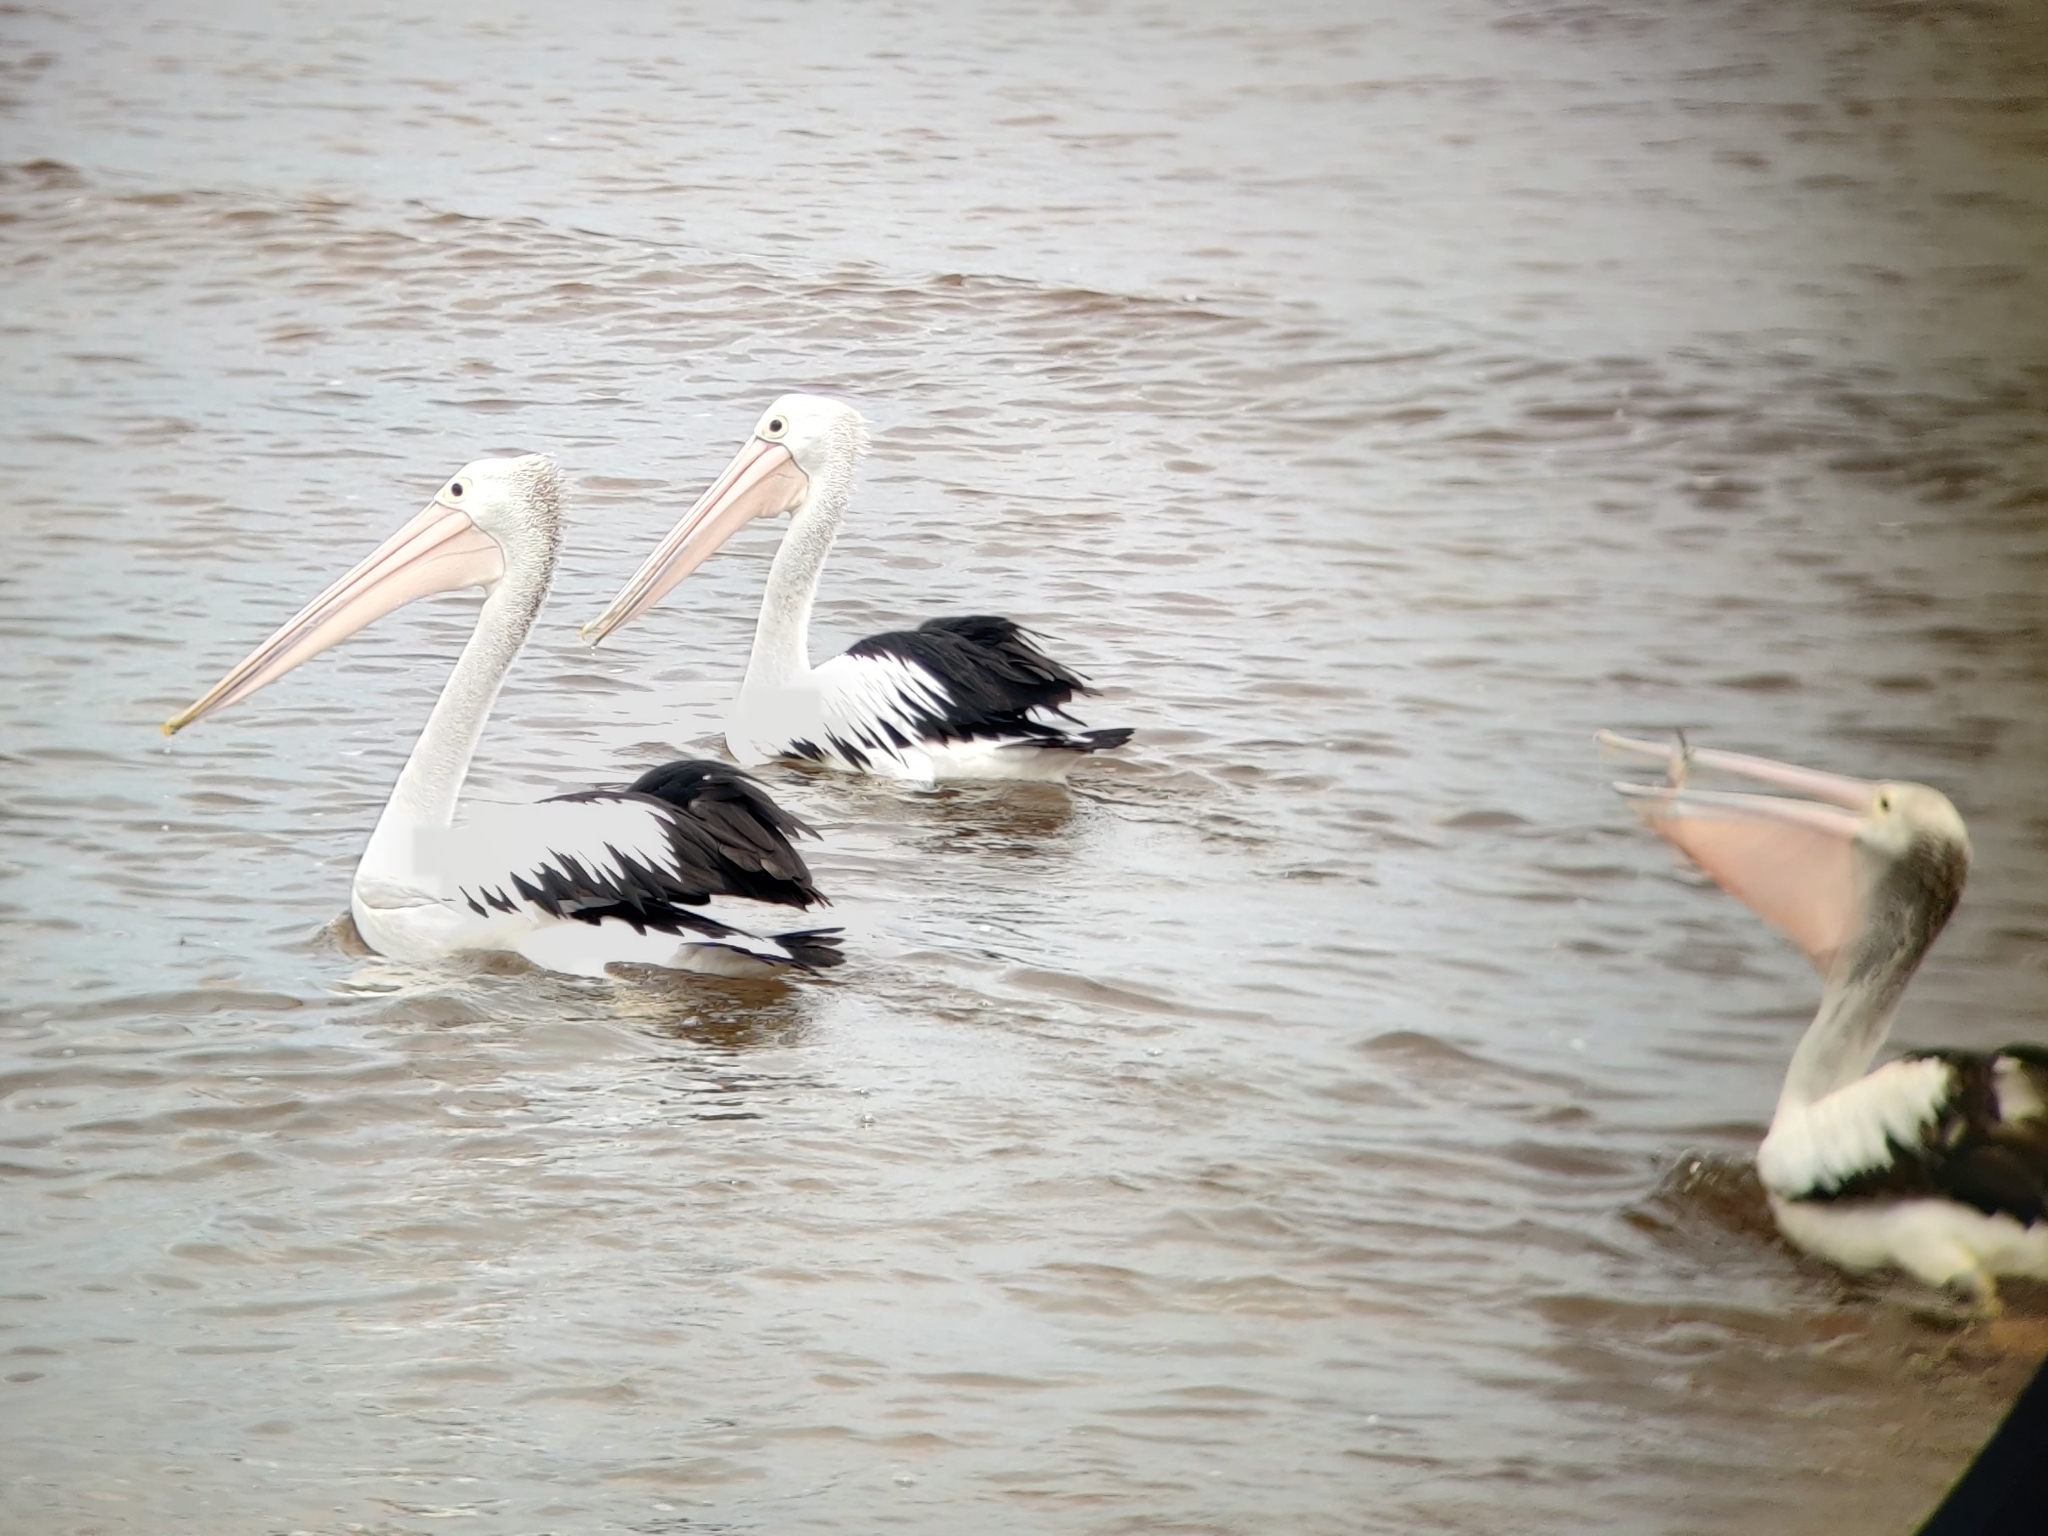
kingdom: Animalia
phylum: Chordata
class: Aves
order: Pelecaniformes
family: Pelecanidae
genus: Pelecanus
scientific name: Pelecanus conspicillatus
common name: Australian pelican
